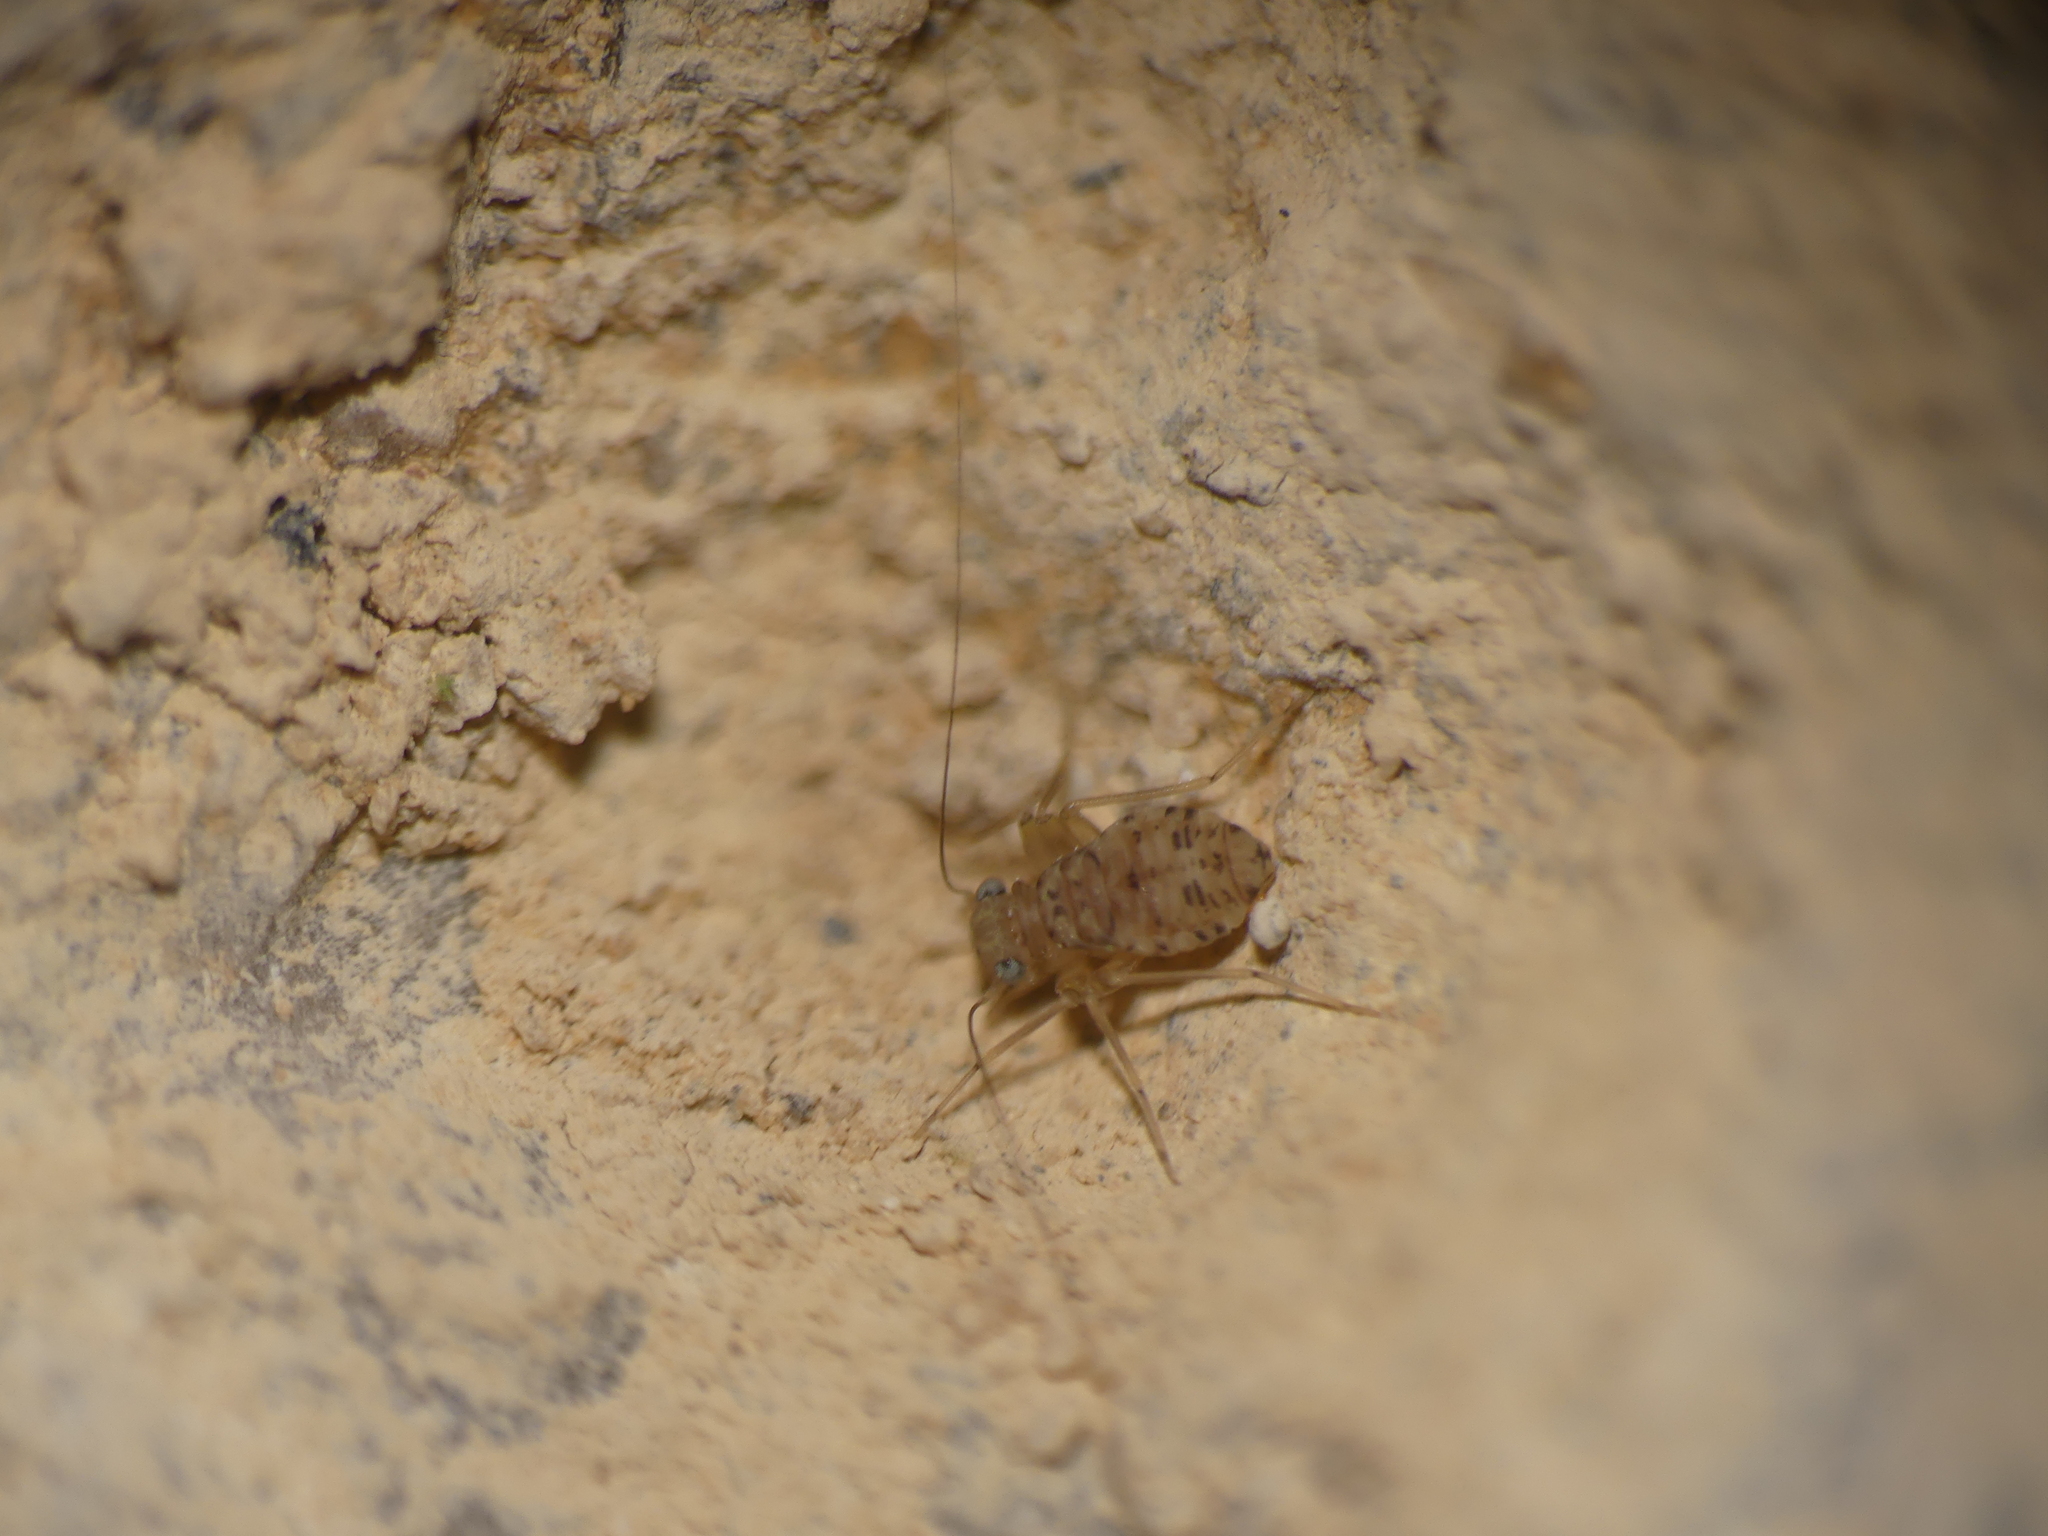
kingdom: Animalia
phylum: Arthropoda
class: Insecta
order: Psocodea
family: Prionoglarididae
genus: Prionoglaris
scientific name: Prionoglaris stygia
